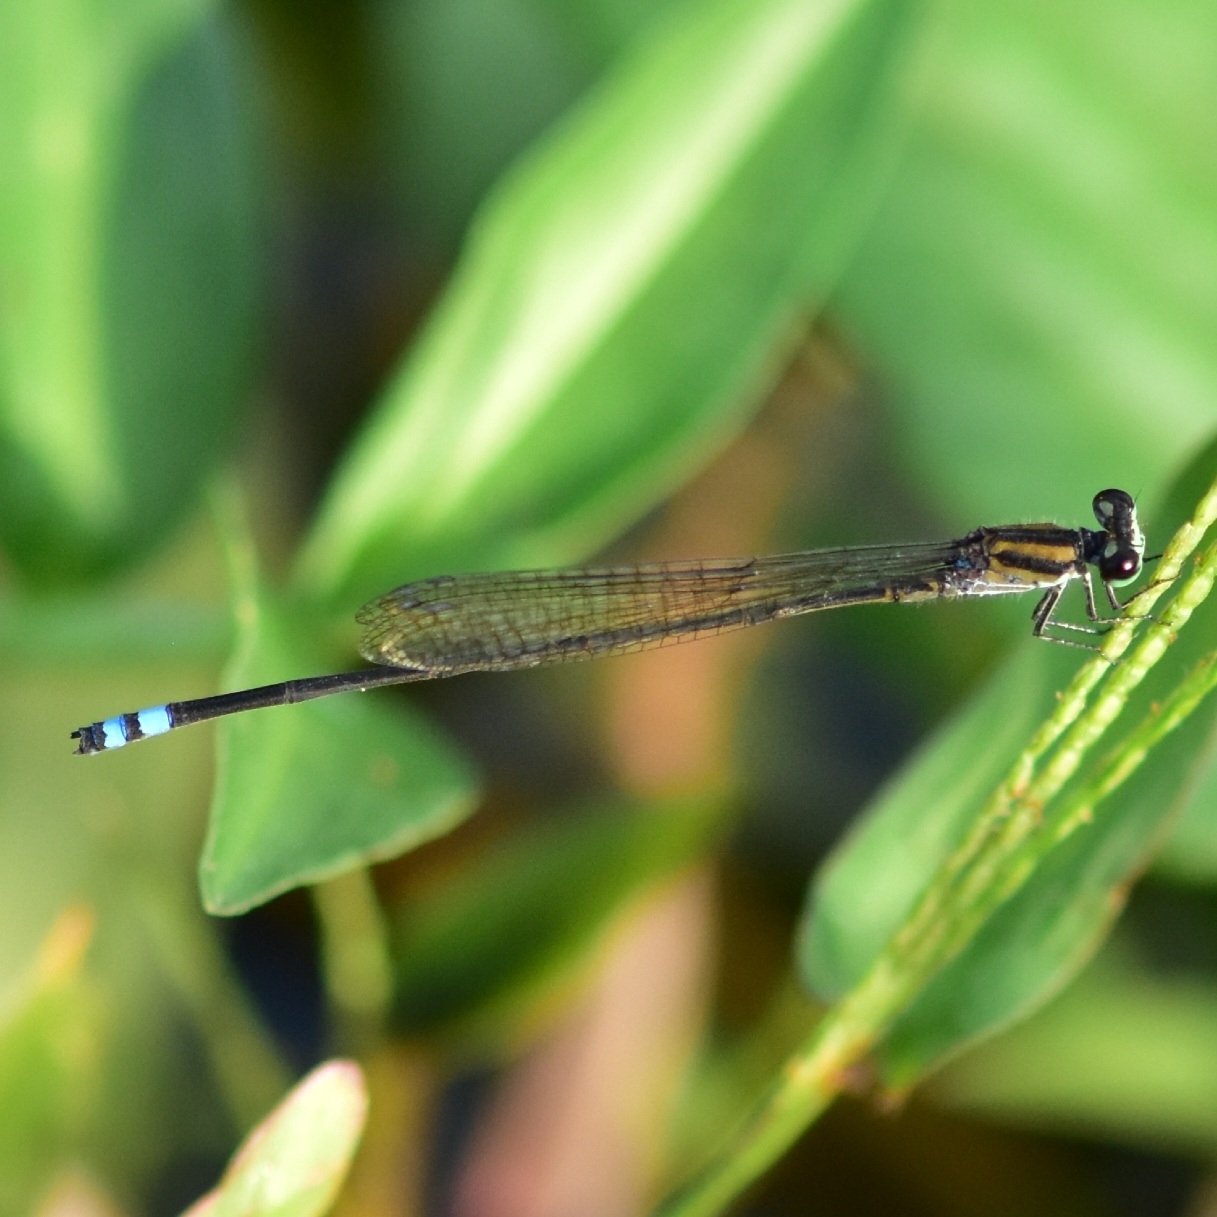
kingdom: Animalia
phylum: Arthropoda
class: Insecta
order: Odonata
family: Coenagrionidae
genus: Pseudagrion
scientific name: Pseudagrion indicum
